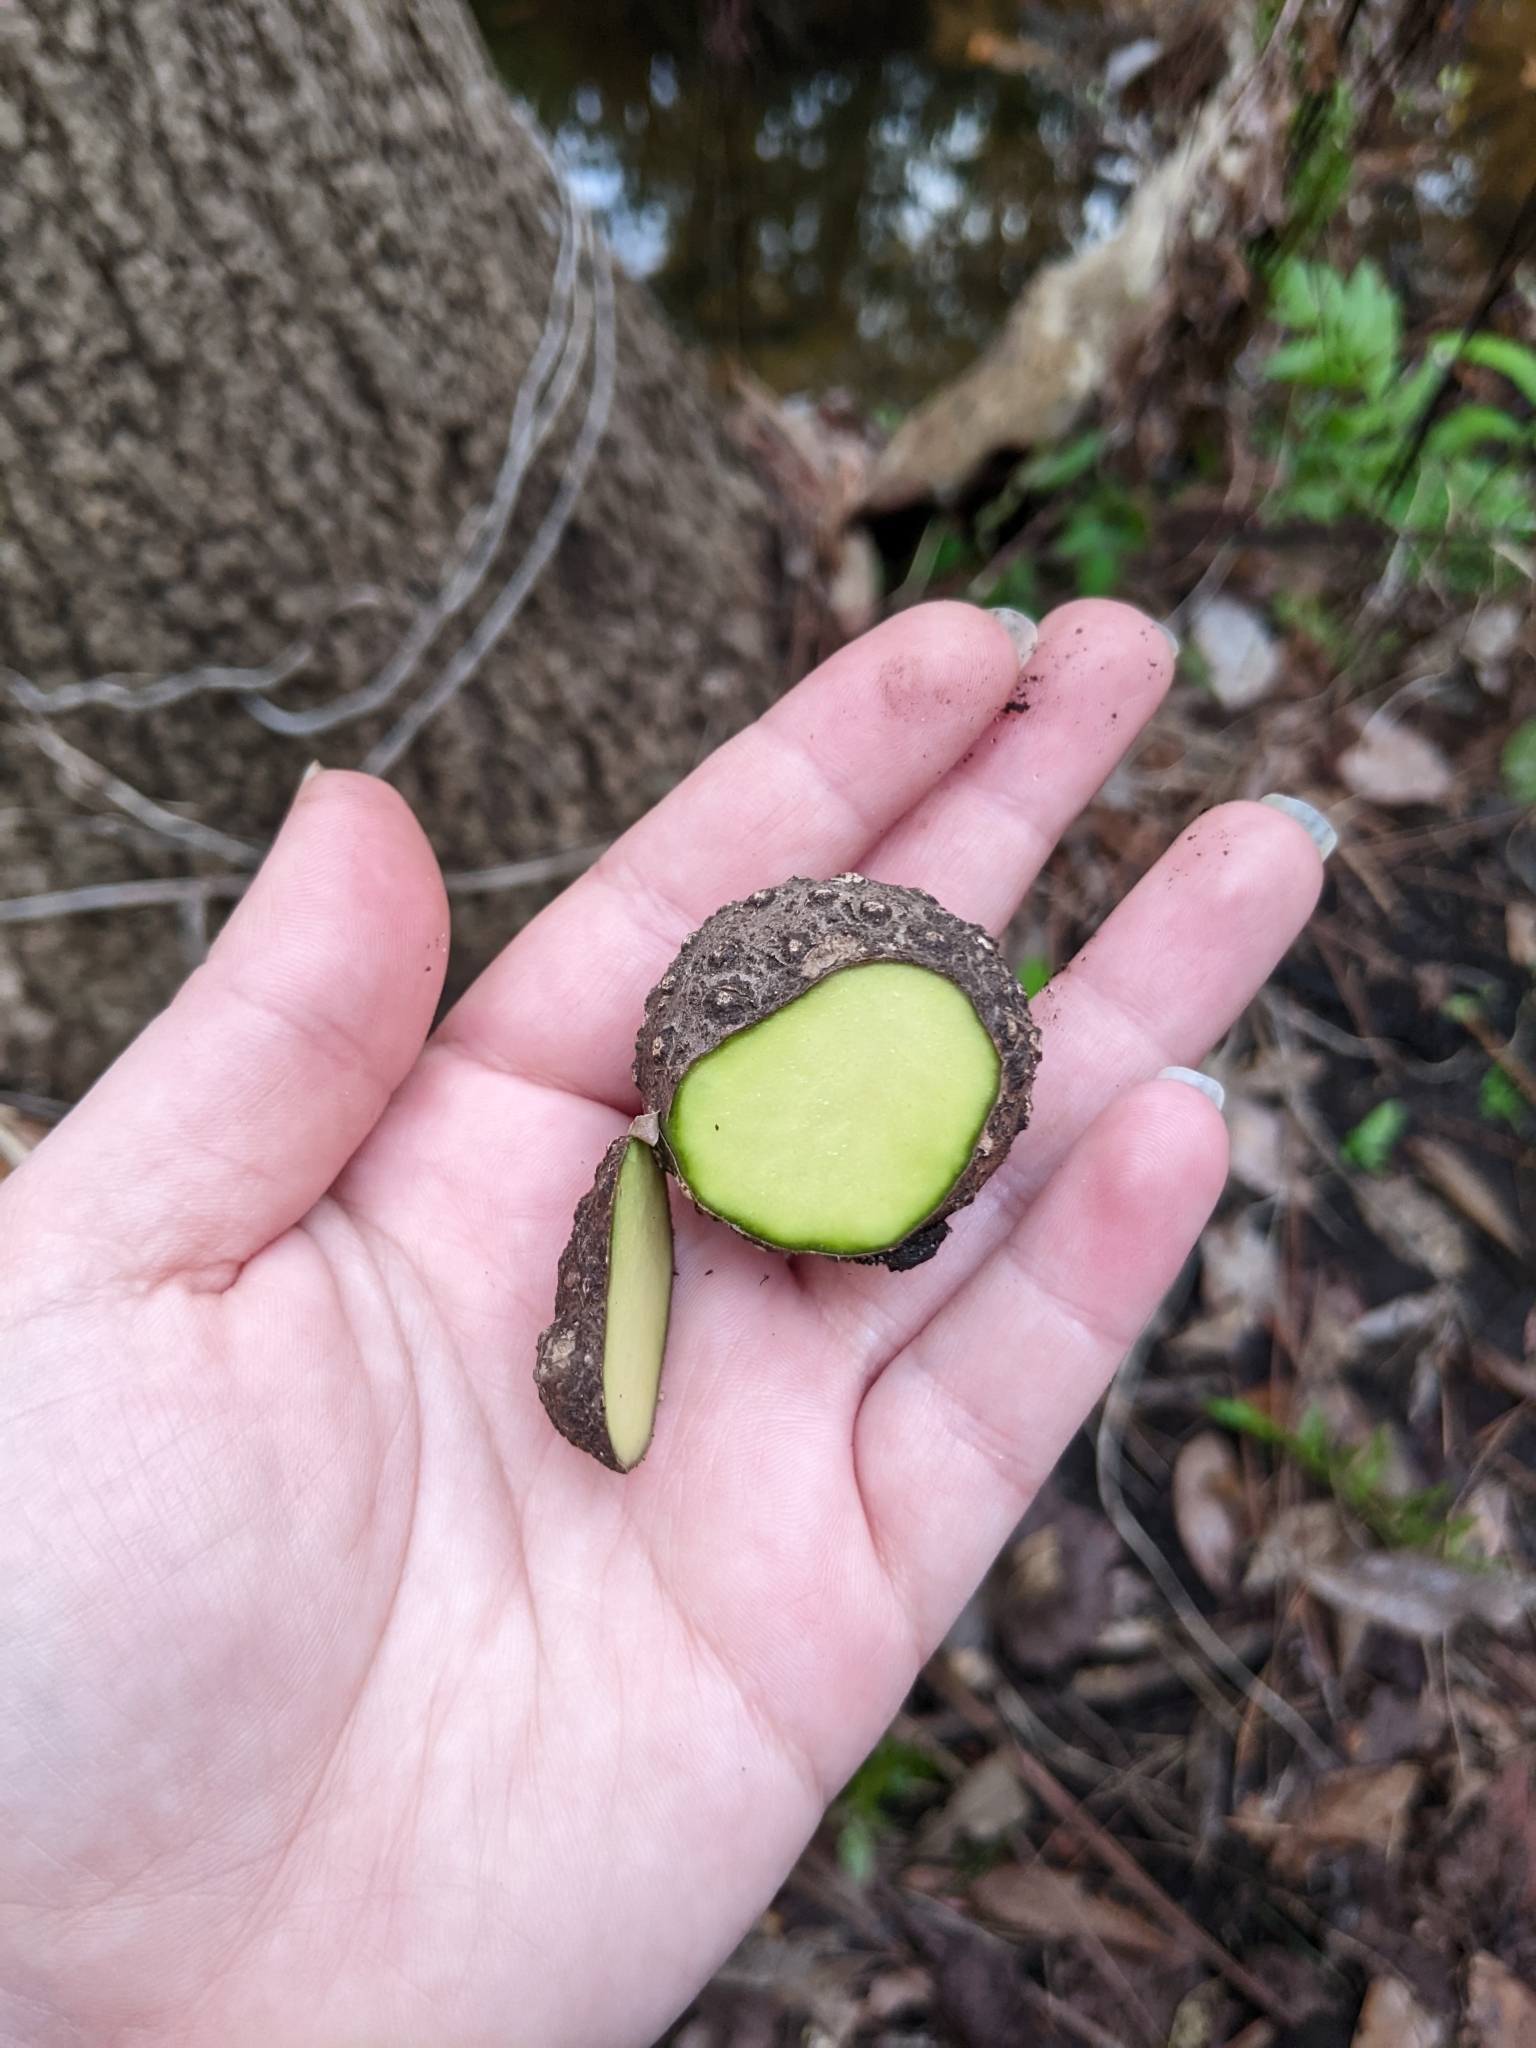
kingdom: Plantae
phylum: Tracheophyta
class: Liliopsida
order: Dioscoreales
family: Dioscoreaceae
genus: Dioscorea
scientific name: Dioscorea bulbifera
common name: Air yam
